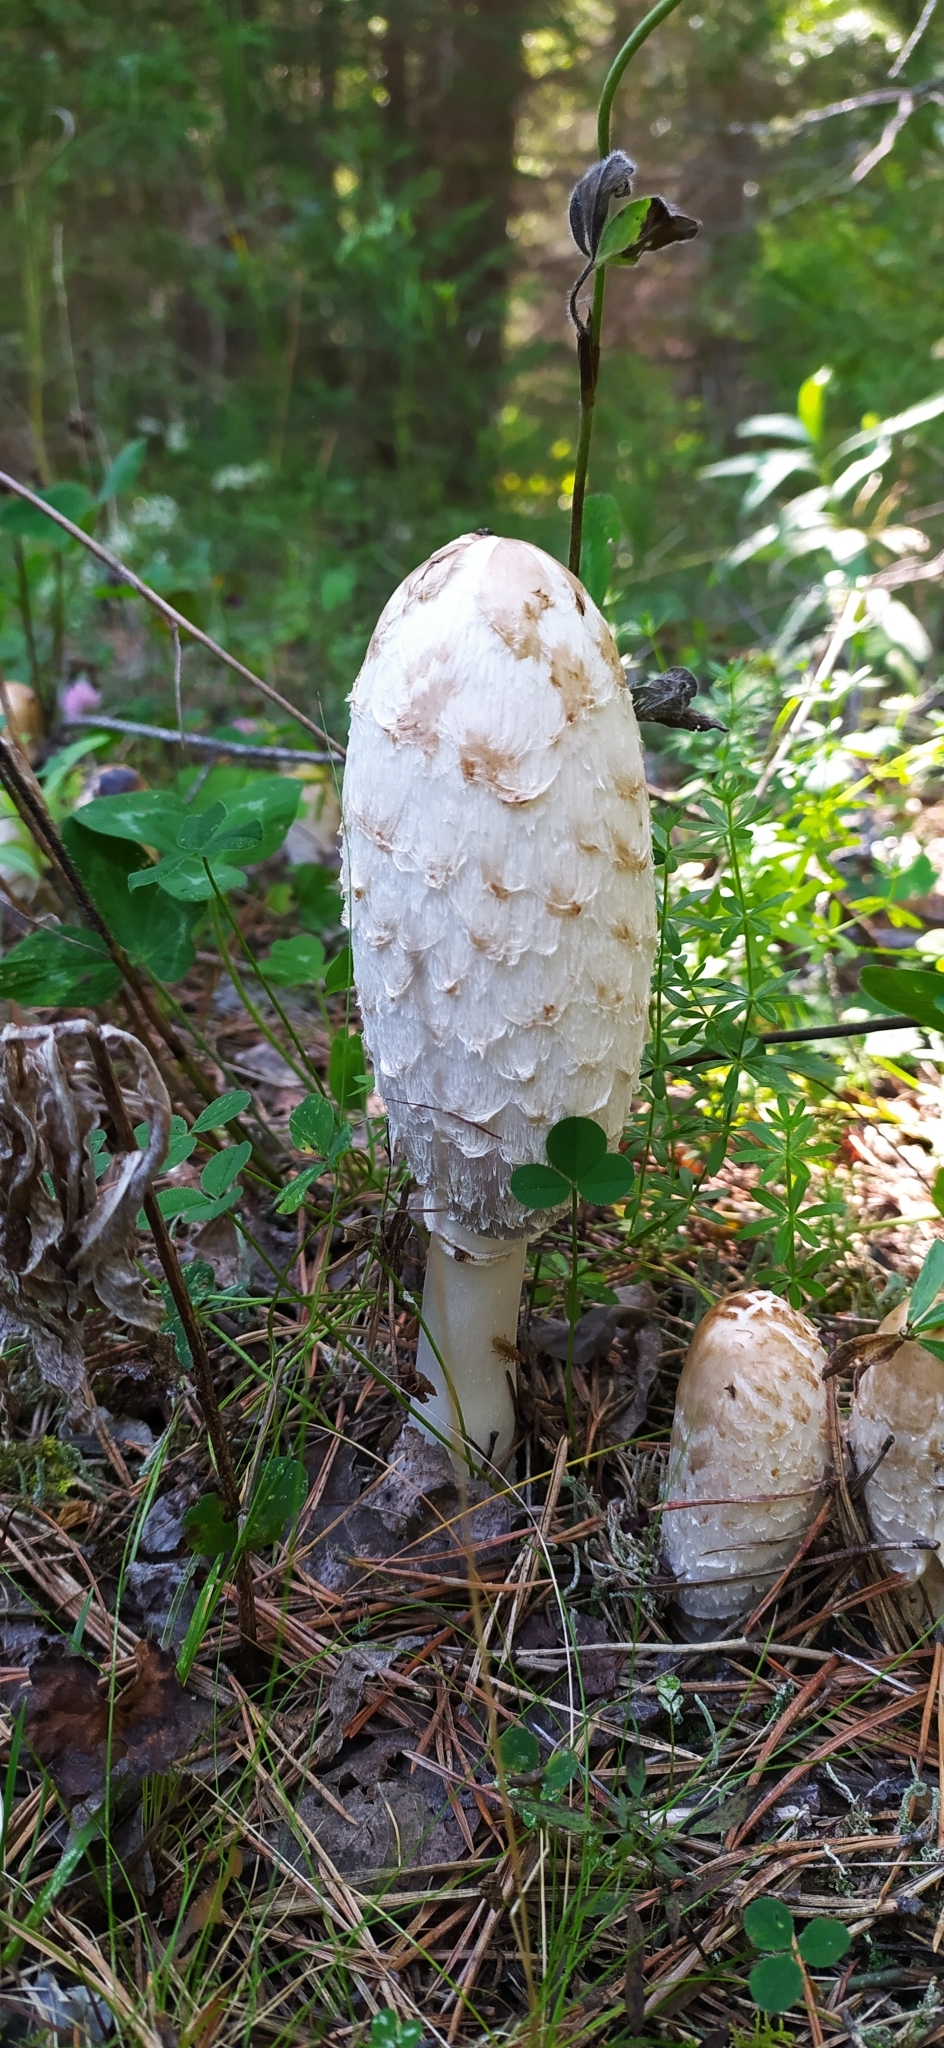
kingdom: Fungi
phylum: Basidiomycota
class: Agaricomycetes
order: Agaricales
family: Agaricaceae
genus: Coprinus
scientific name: Coprinus comatus
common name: Lawyer's wig
